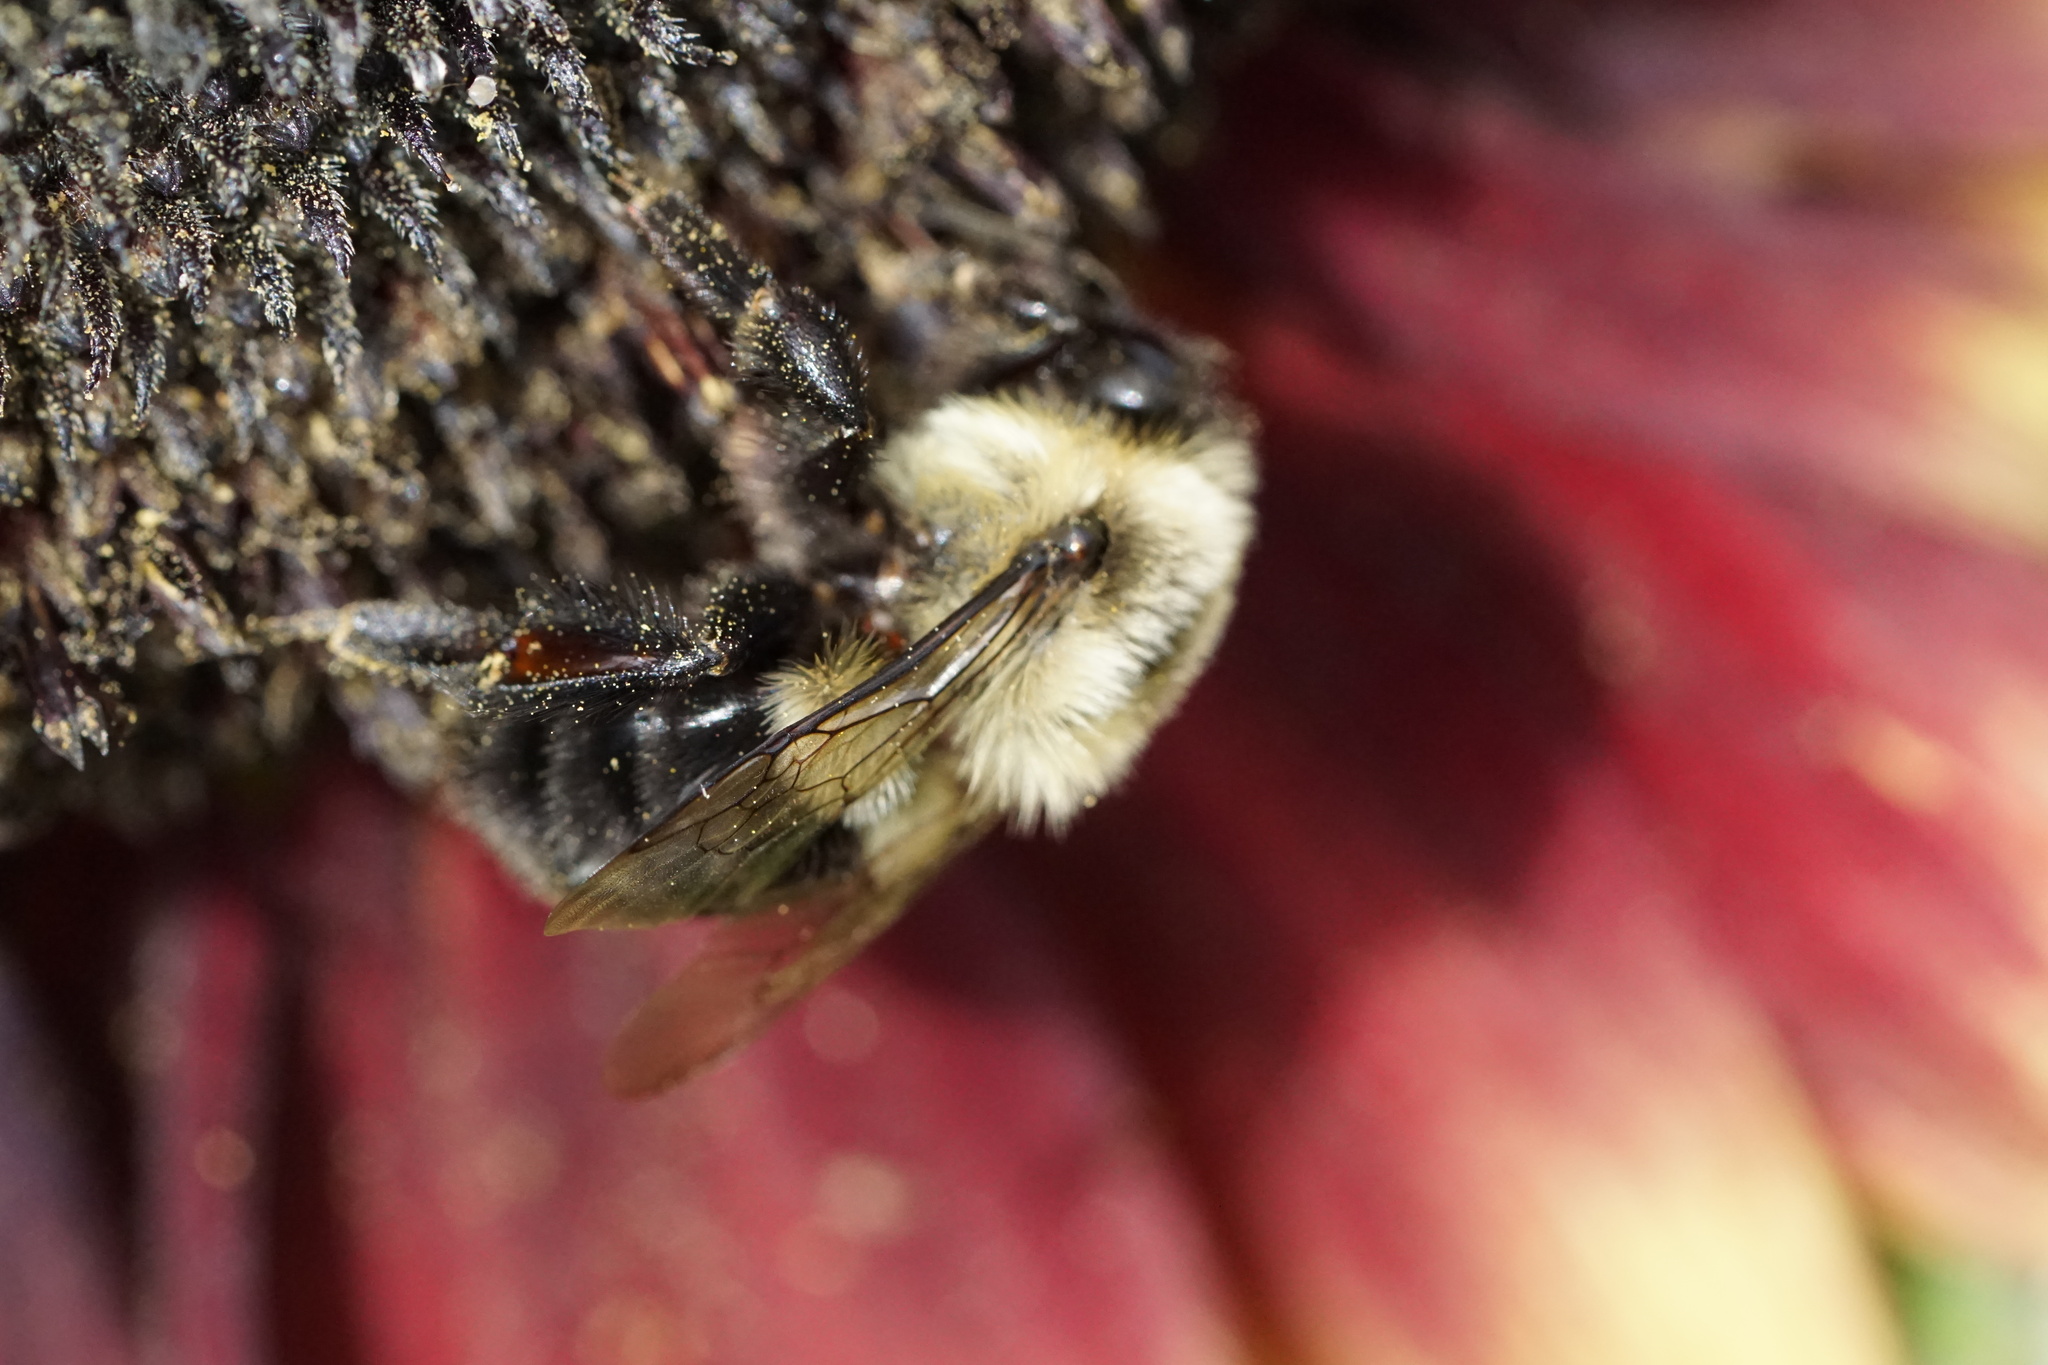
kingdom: Animalia
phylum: Arthropoda
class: Insecta
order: Hymenoptera
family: Apidae
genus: Bombus
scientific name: Bombus impatiens
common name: Common eastern bumble bee
